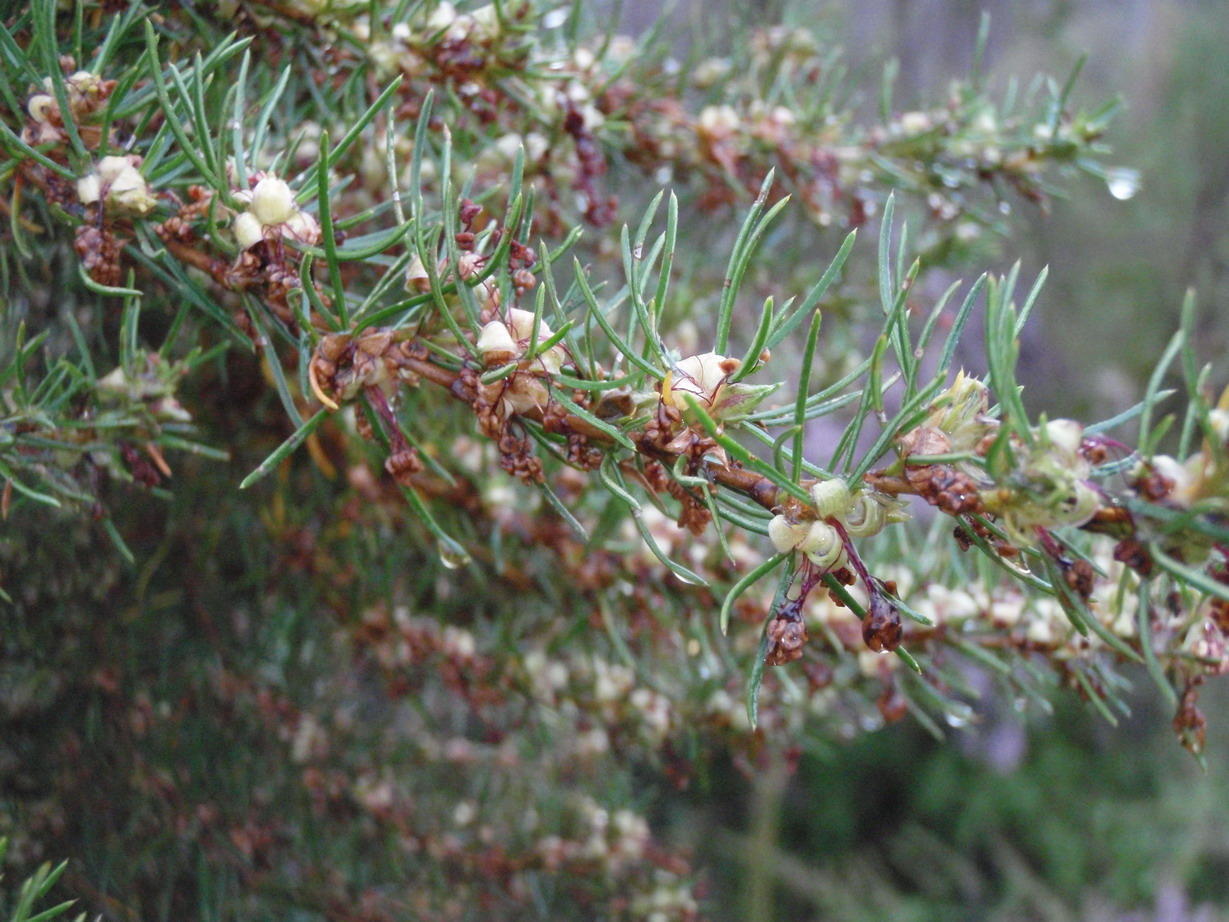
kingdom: Plantae
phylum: Tracheophyta
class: Magnoliopsida
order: Rosales
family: Rosaceae
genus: Cliffortia
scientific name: Cliffortia burchellii
